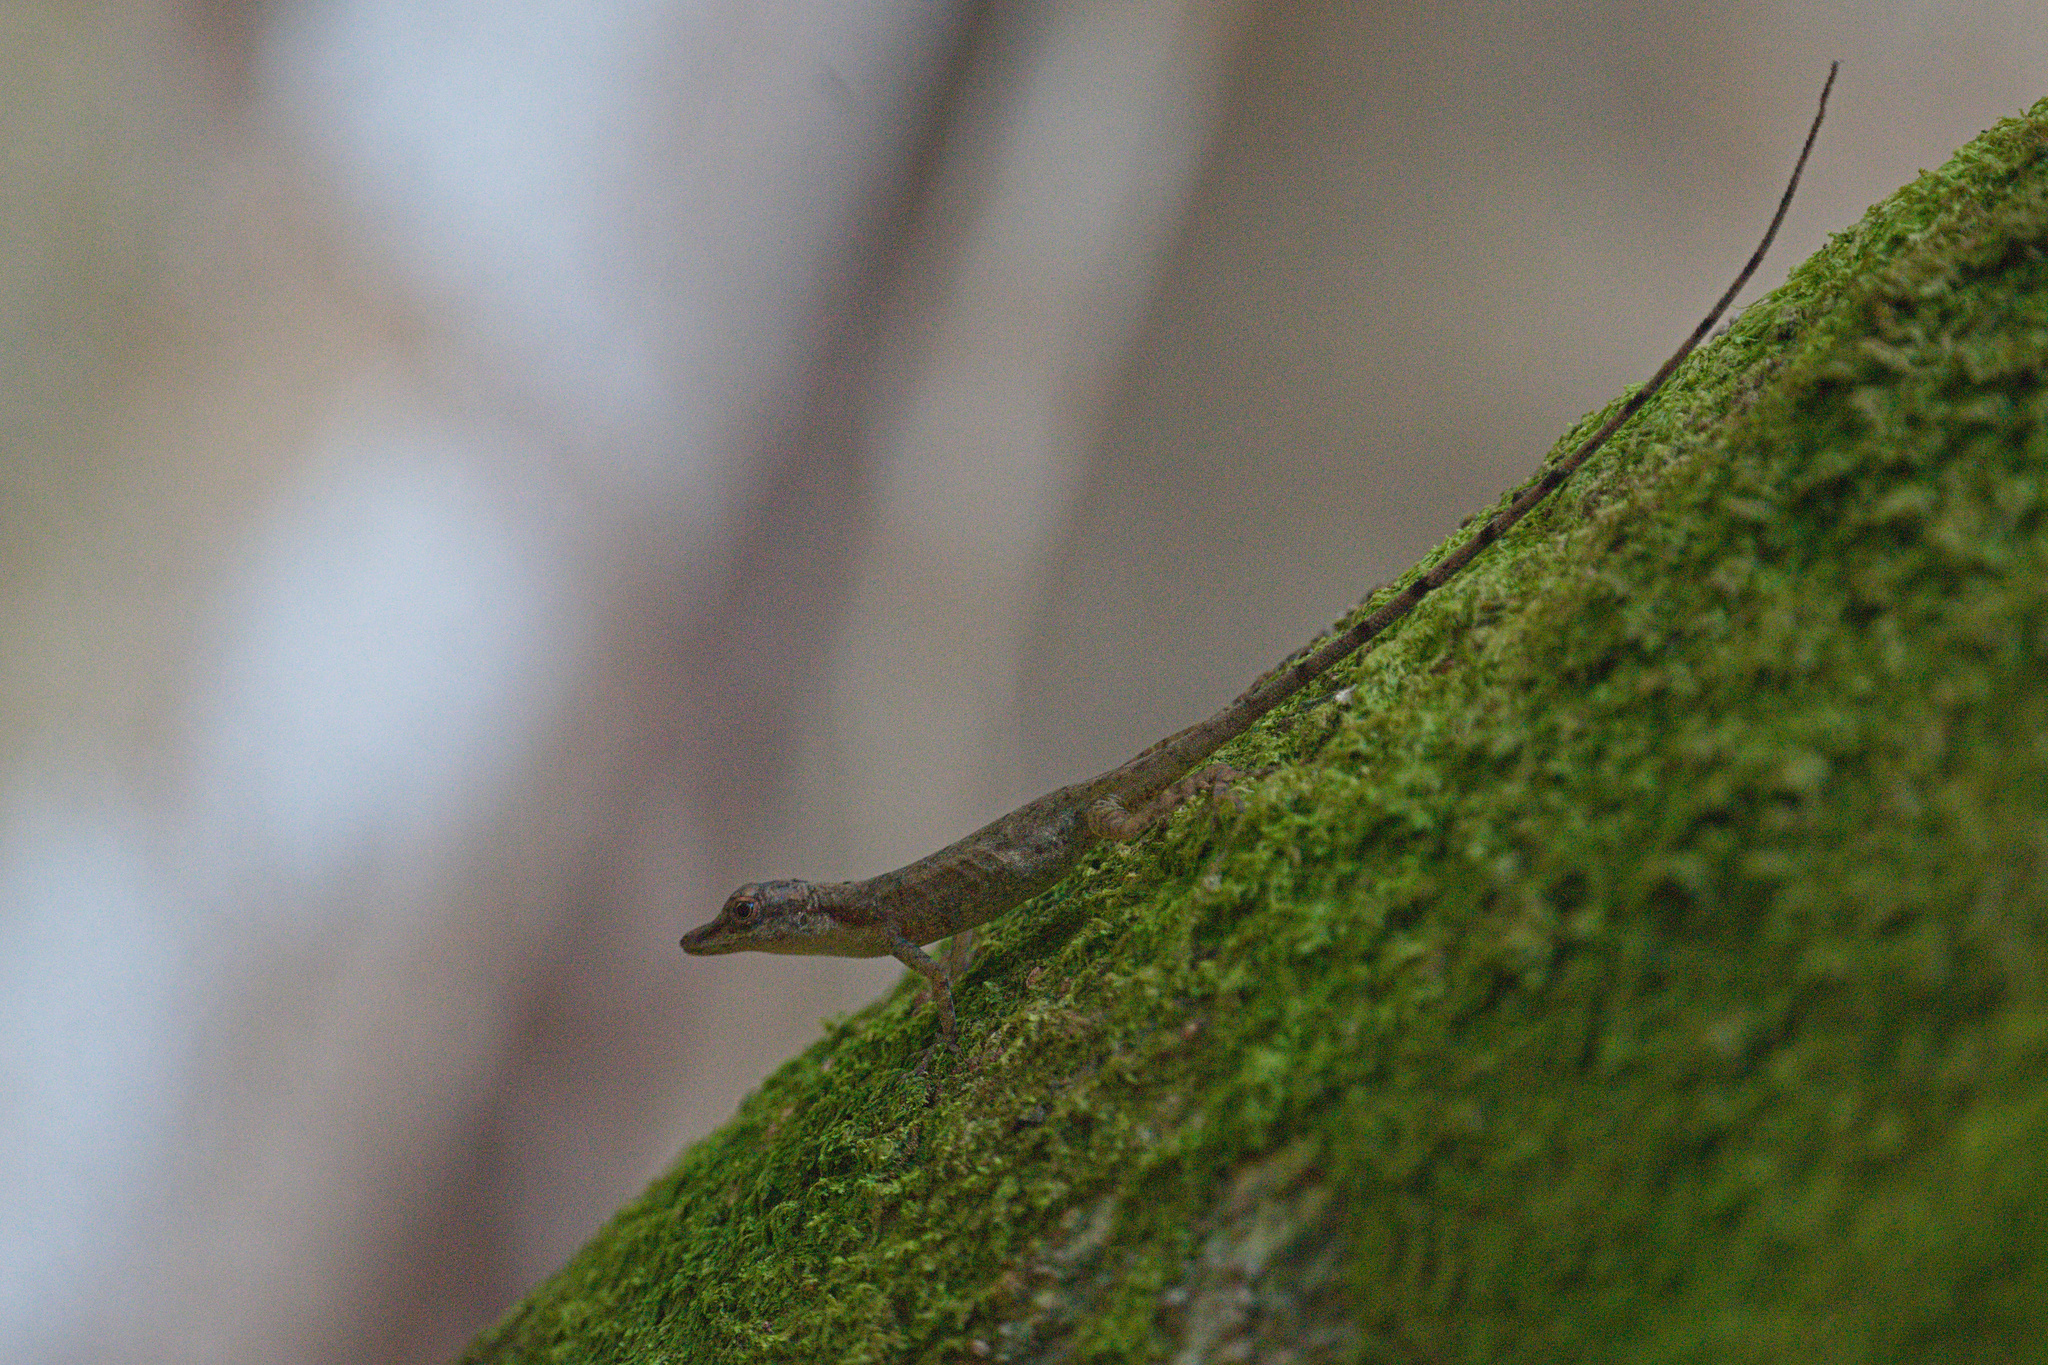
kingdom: Animalia
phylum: Chordata
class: Squamata
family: Dactyloidae
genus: Anolis
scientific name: Anolis limifrons
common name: Border anole
